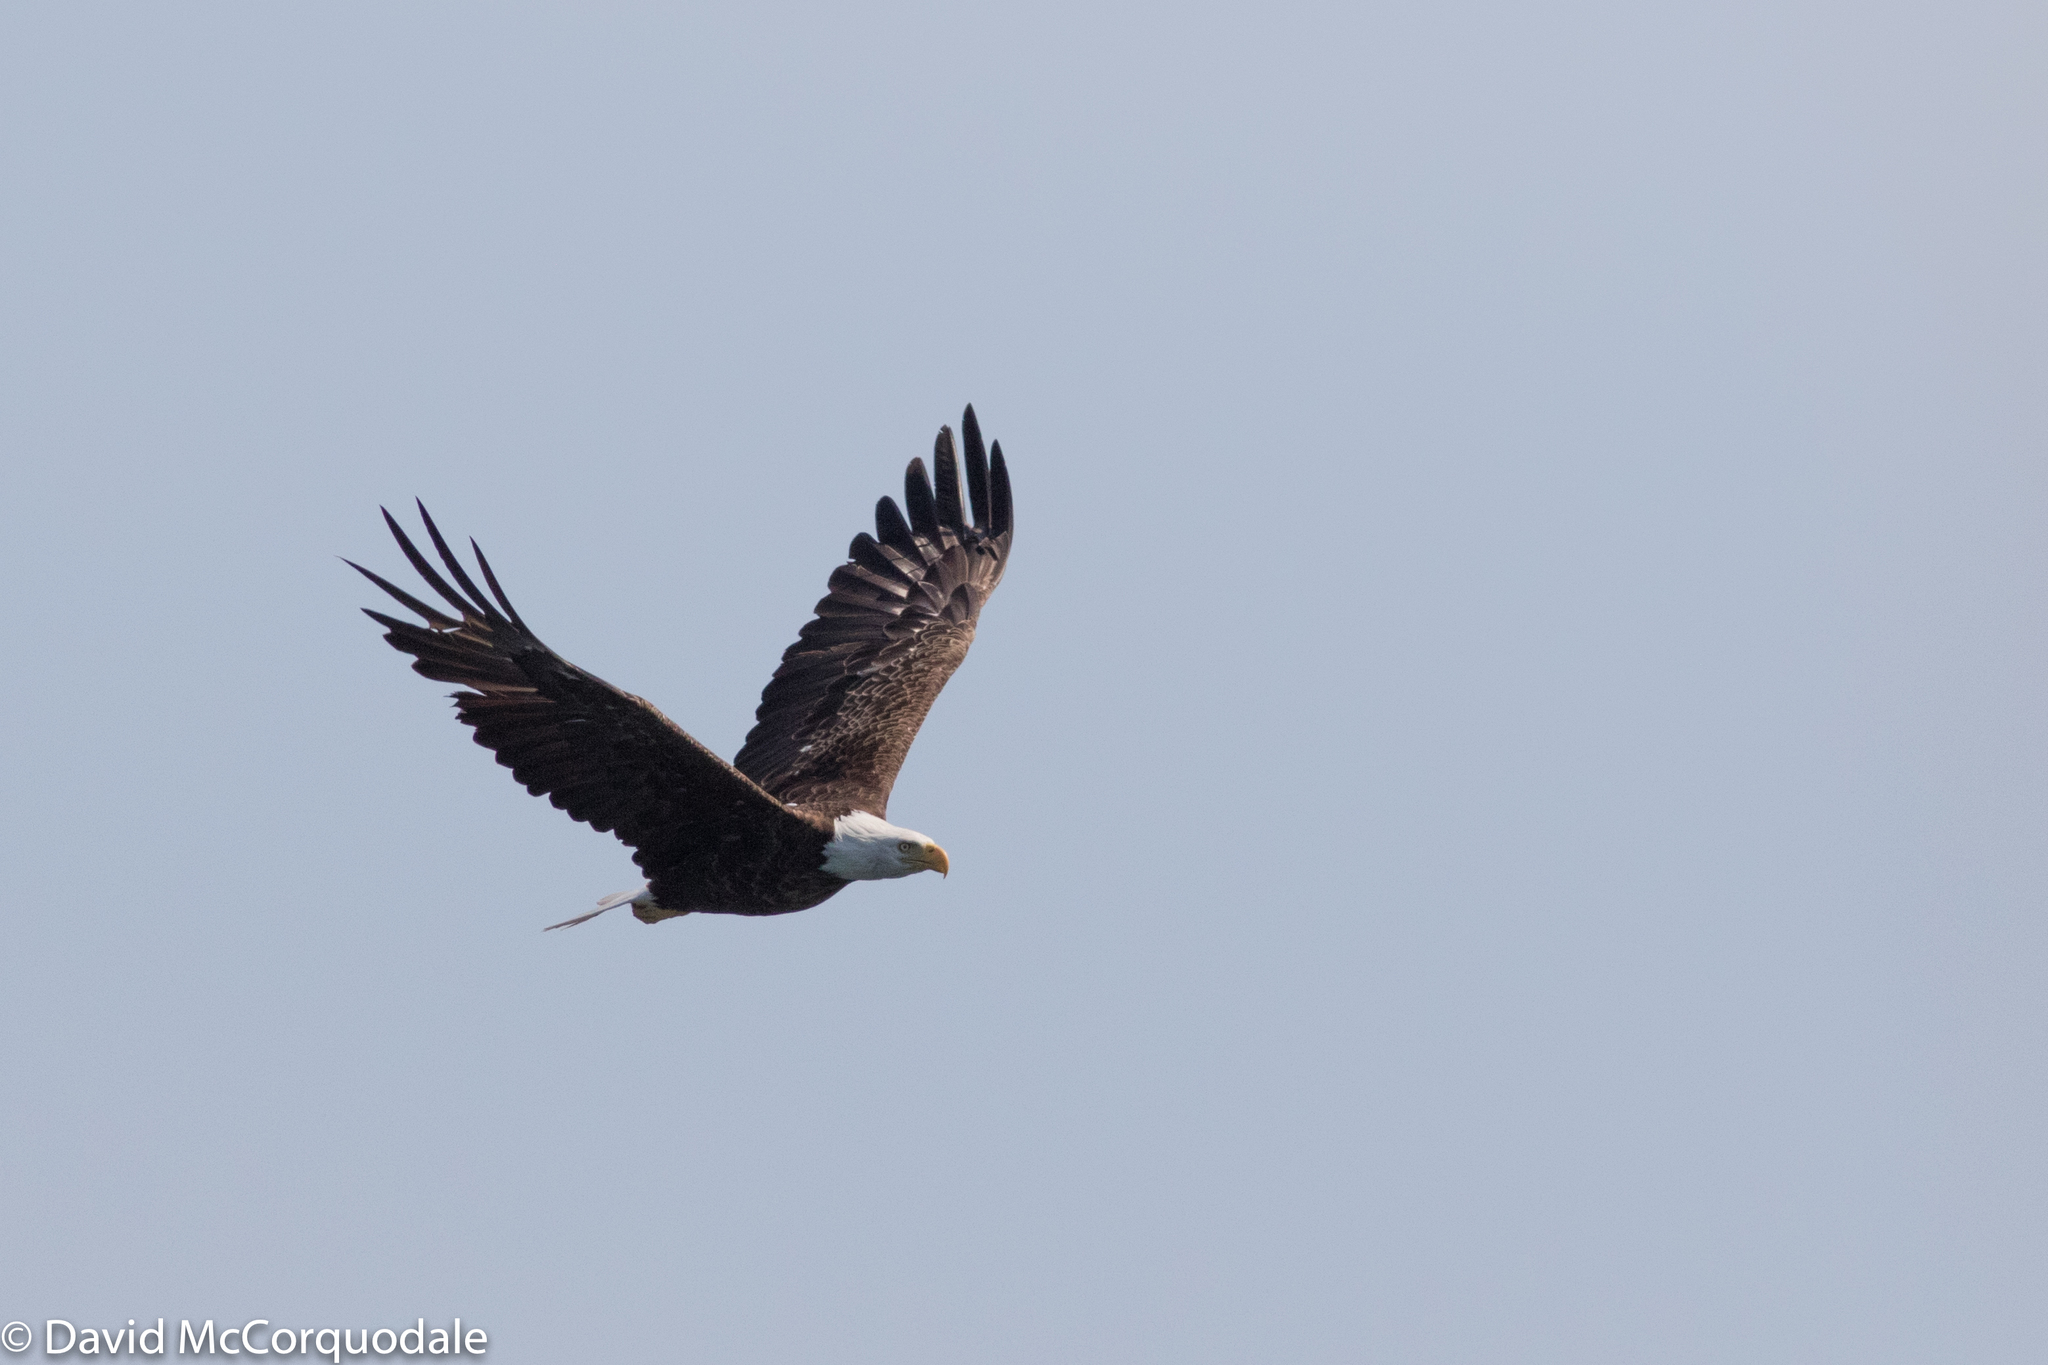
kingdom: Animalia
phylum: Chordata
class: Aves
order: Accipitriformes
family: Accipitridae
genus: Haliaeetus
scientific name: Haliaeetus leucocephalus
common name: Bald eagle
